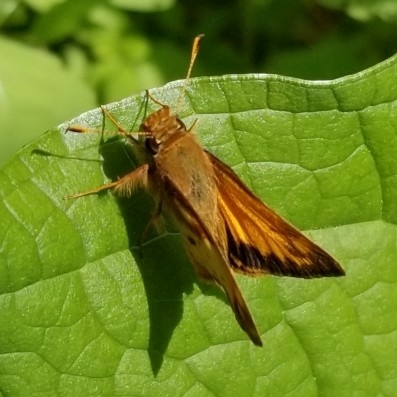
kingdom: Animalia
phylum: Arthropoda
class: Insecta
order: Lepidoptera
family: Hesperiidae
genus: Lon
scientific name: Lon zabulon
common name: Zabulon skipper
